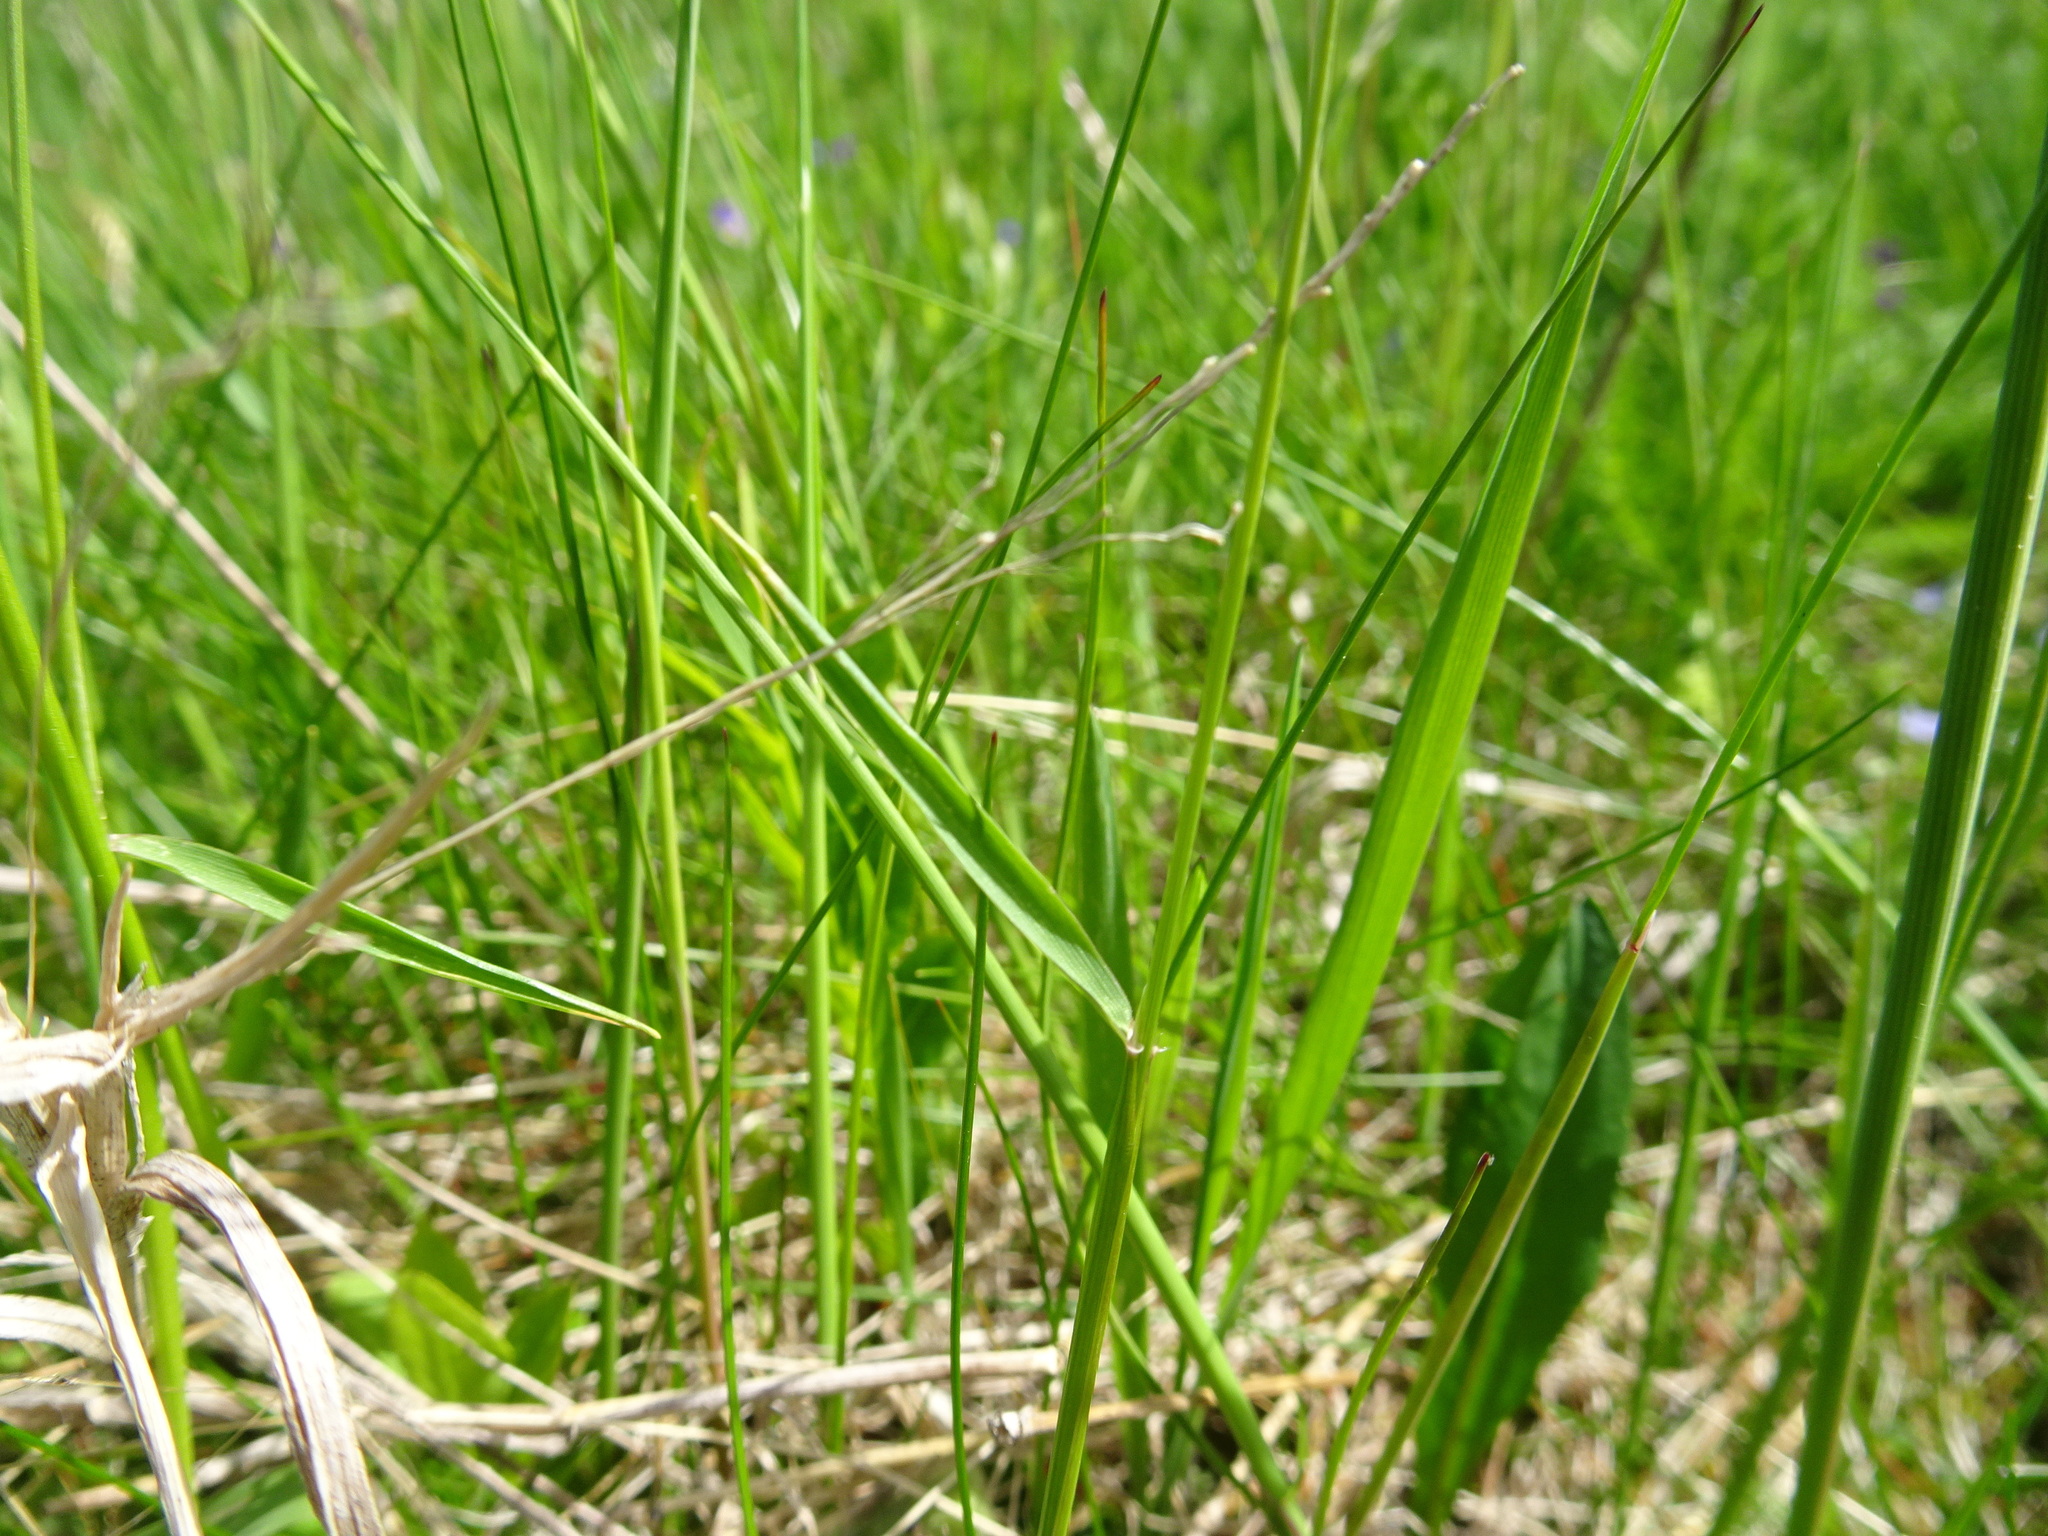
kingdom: Plantae
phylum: Tracheophyta
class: Liliopsida
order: Poales
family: Poaceae
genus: Anthoxanthum
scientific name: Anthoxanthum odoratum
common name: Sweet vernalgrass
